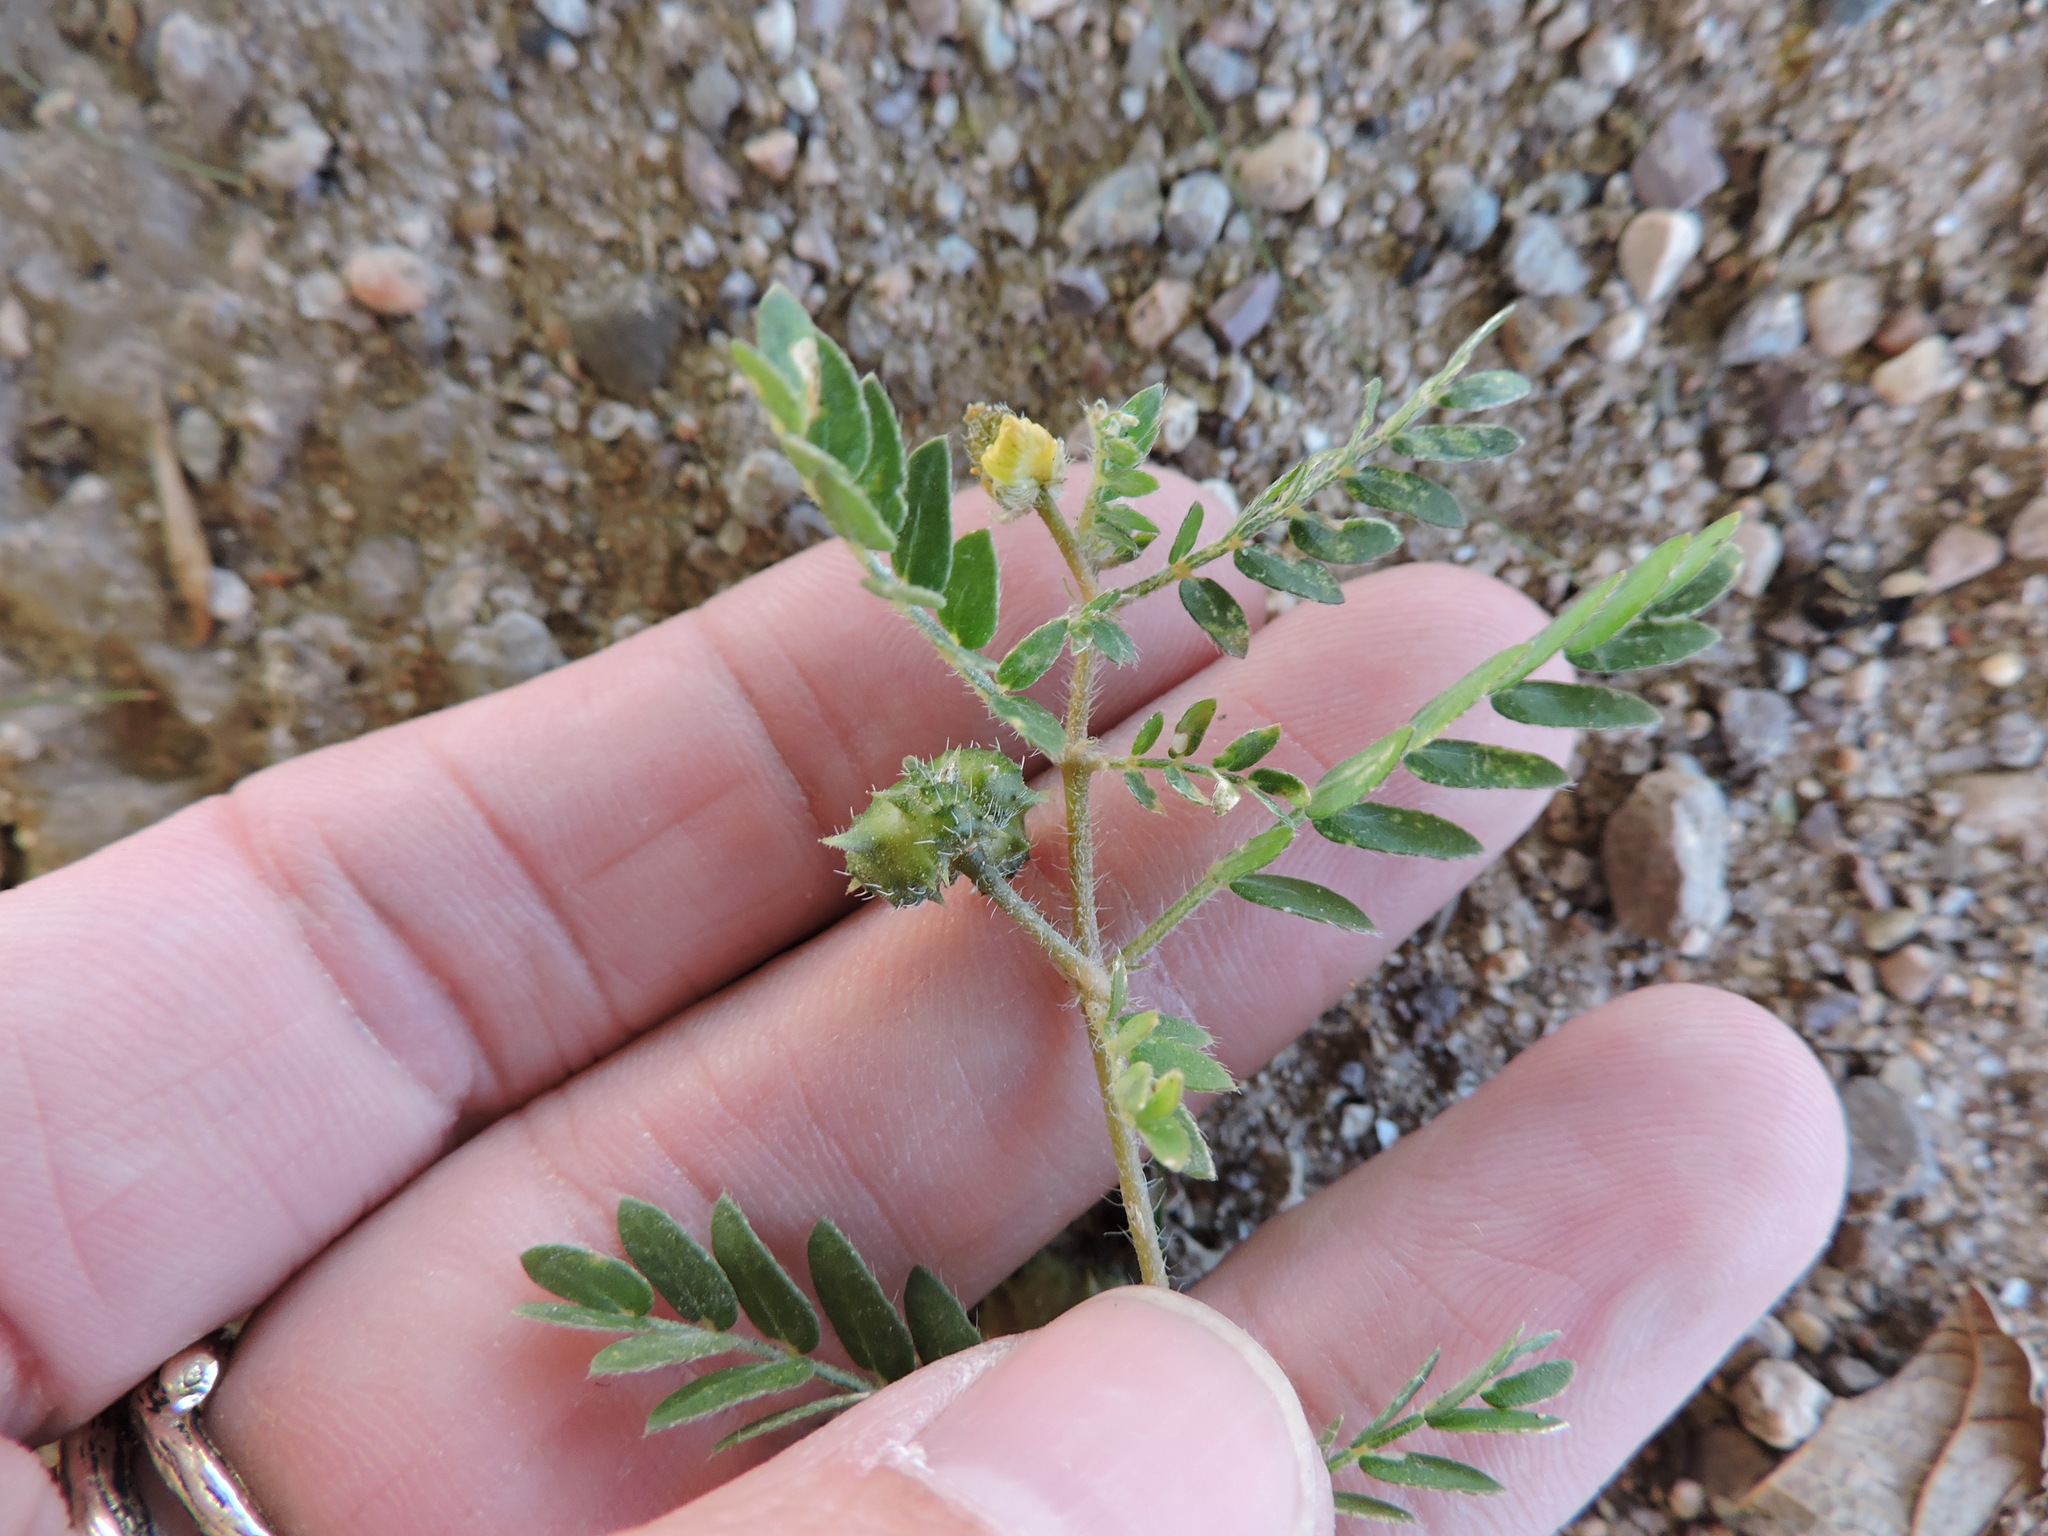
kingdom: Plantae
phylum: Tracheophyta
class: Magnoliopsida
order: Zygophyllales
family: Zygophyllaceae
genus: Tribulus
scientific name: Tribulus terrestris
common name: Puncturevine
